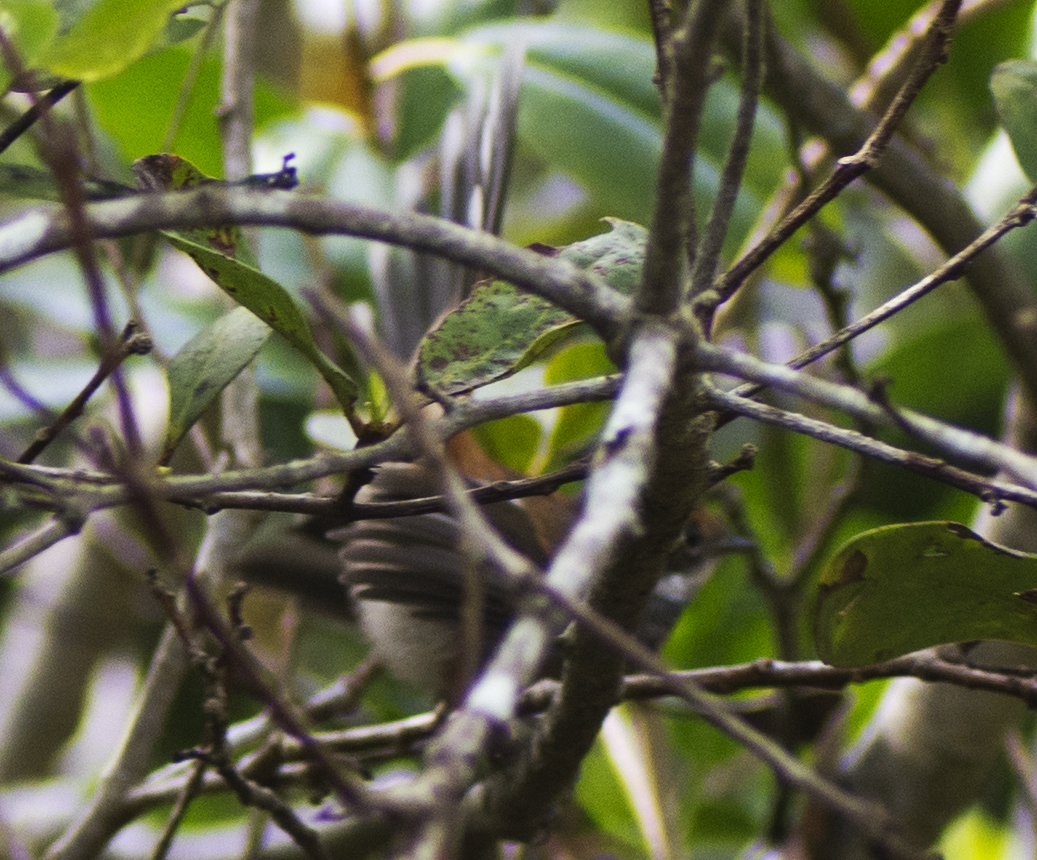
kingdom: Animalia
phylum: Chordata
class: Aves
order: Passeriformes
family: Rhipiduridae
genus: Rhipidura
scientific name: Rhipidura rufifrons
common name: Rufous fantail
